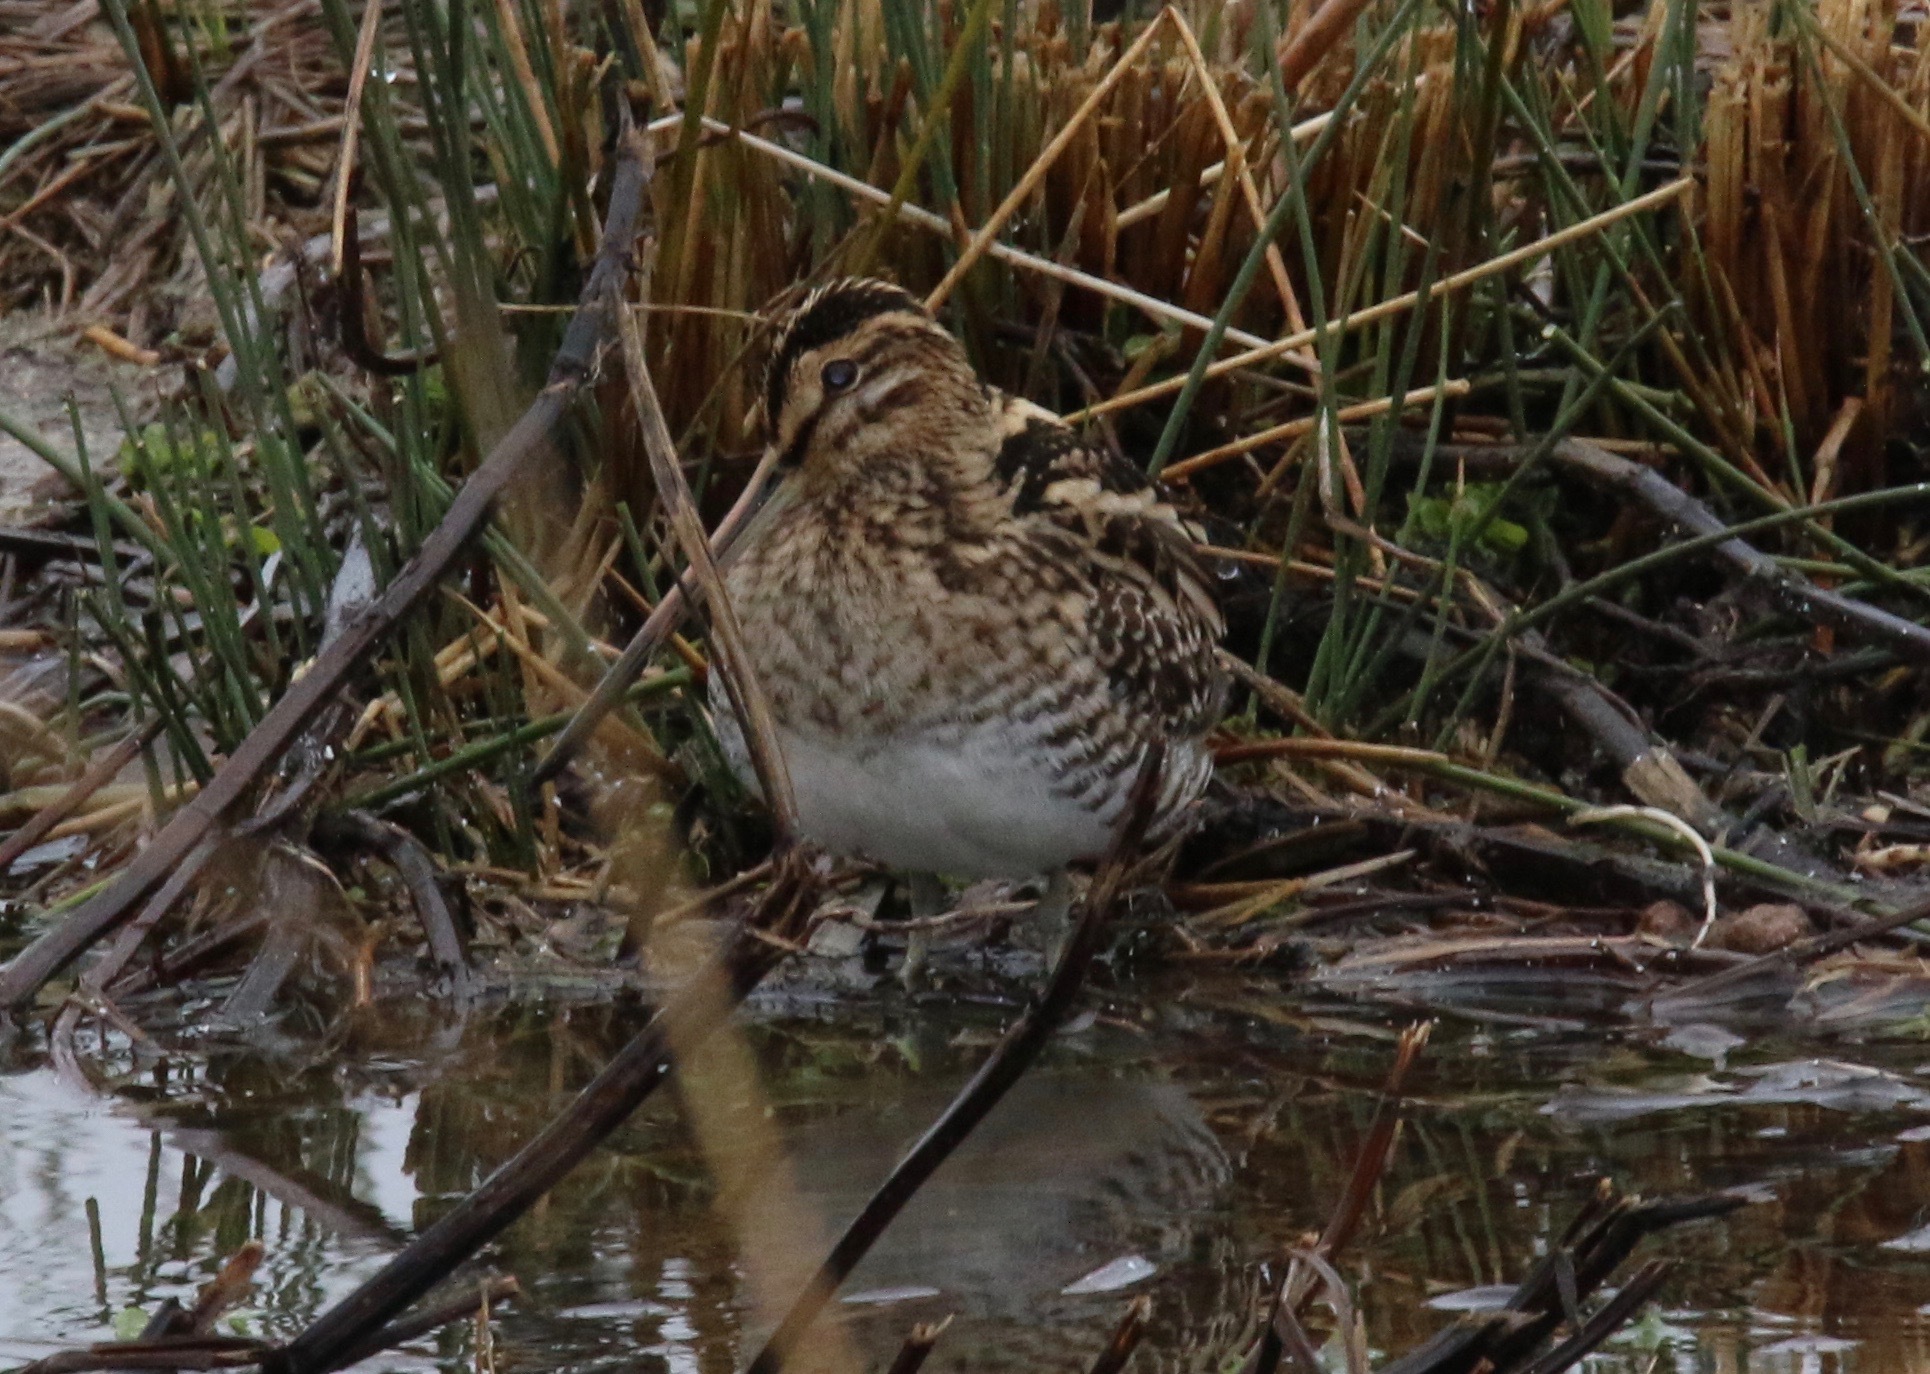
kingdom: Animalia
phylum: Chordata
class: Aves
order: Charadriiformes
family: Scolopacidae
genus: Gallinago
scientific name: Gallinago gallinago
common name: Common snipe
